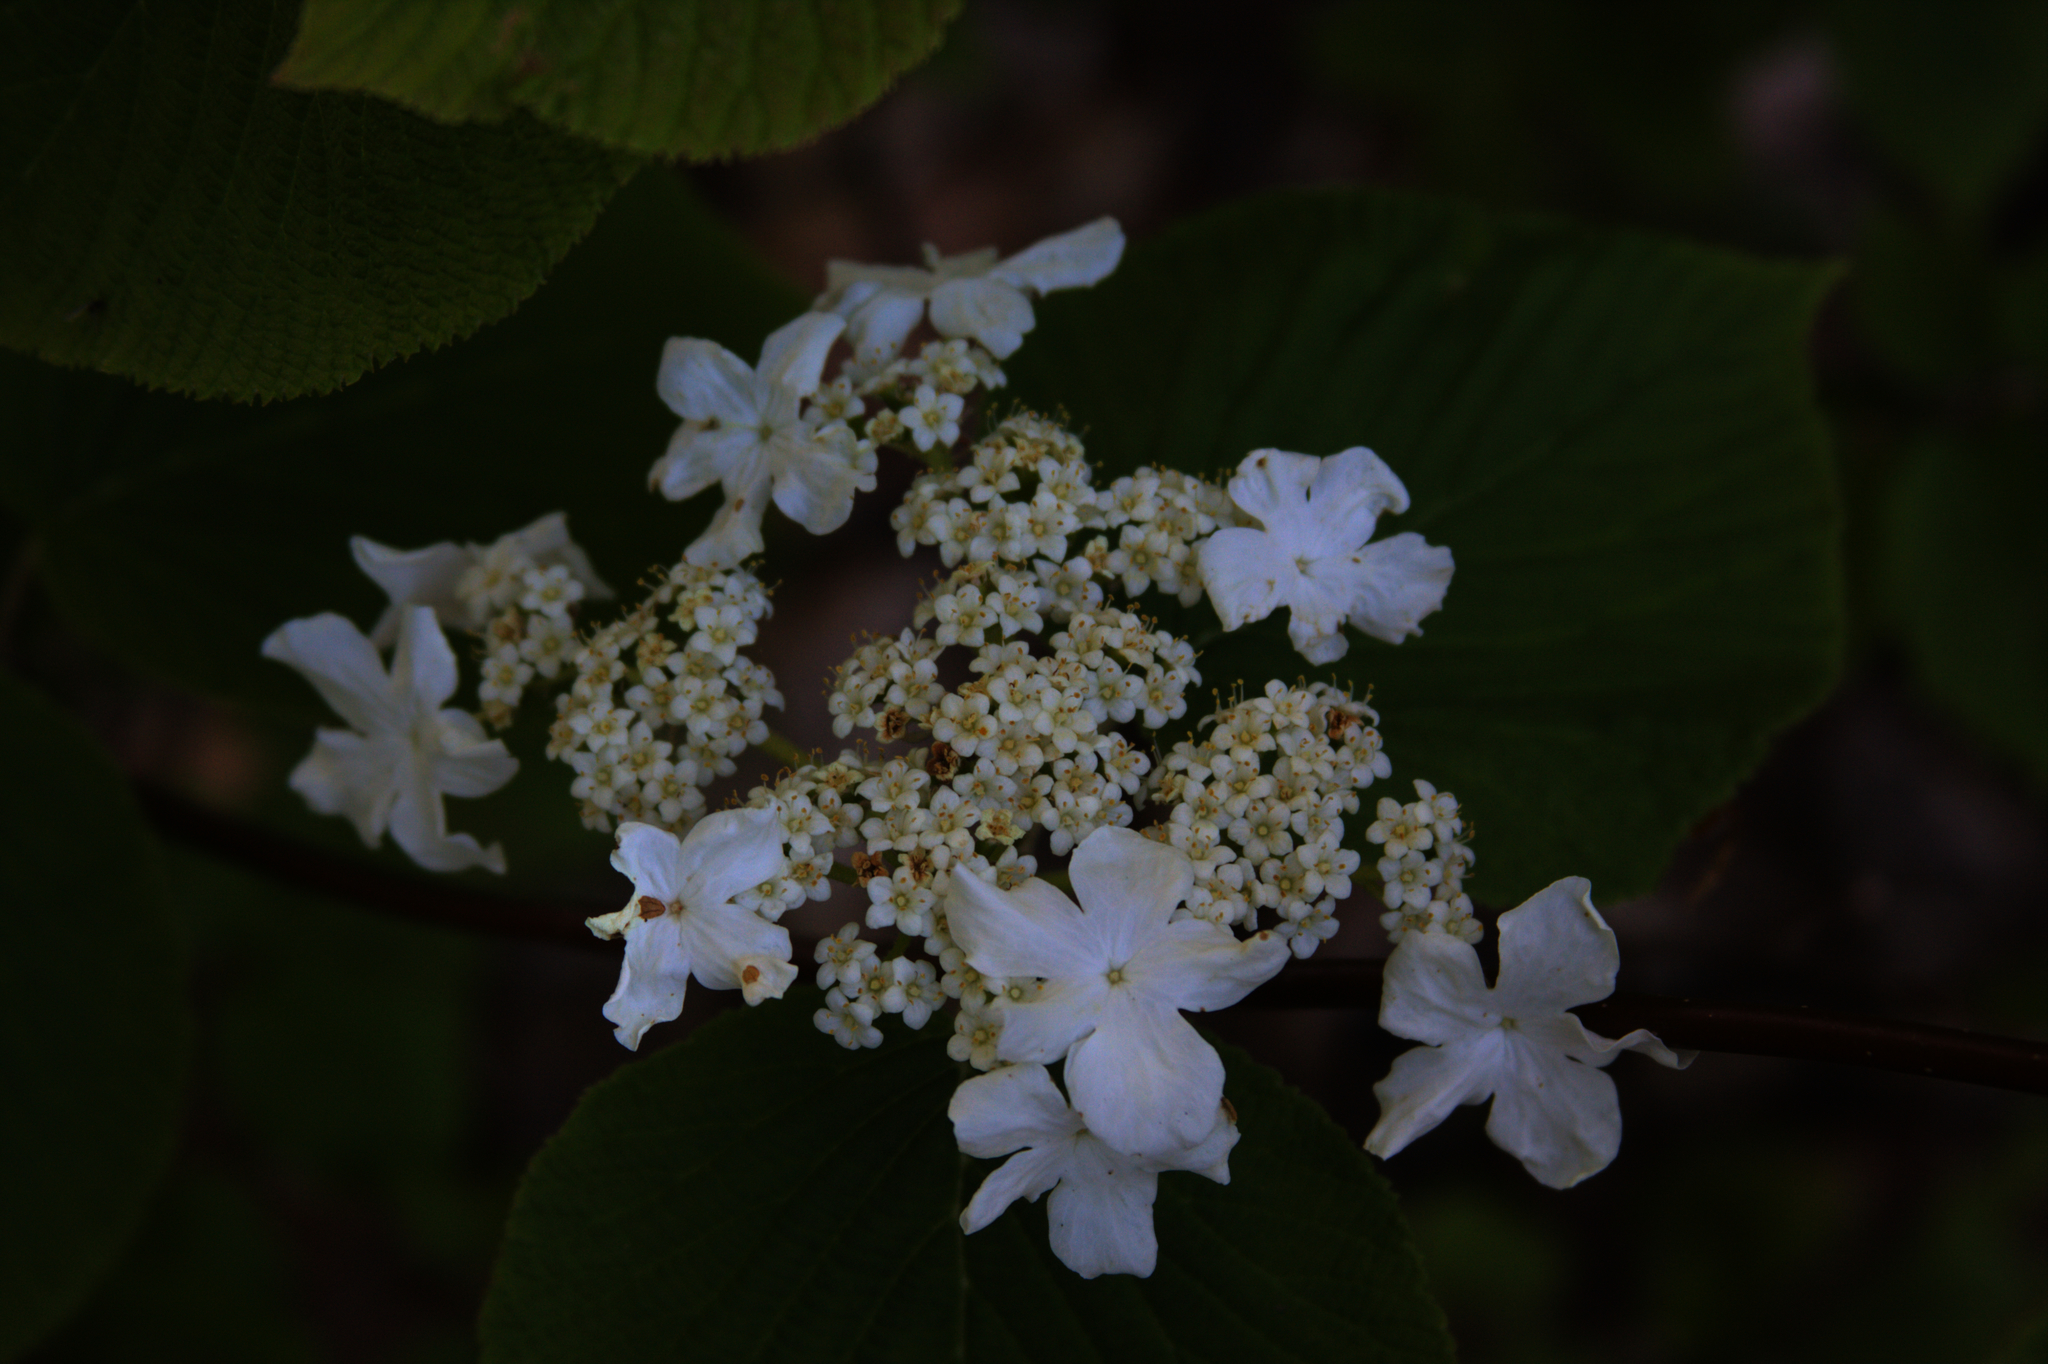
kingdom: Plantae
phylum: Tracheophyta
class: Magnoliopsida
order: Dipsacales
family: Viburnaceae
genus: Viburnum
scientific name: Viburnum lantanoides
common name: Hobblebush
